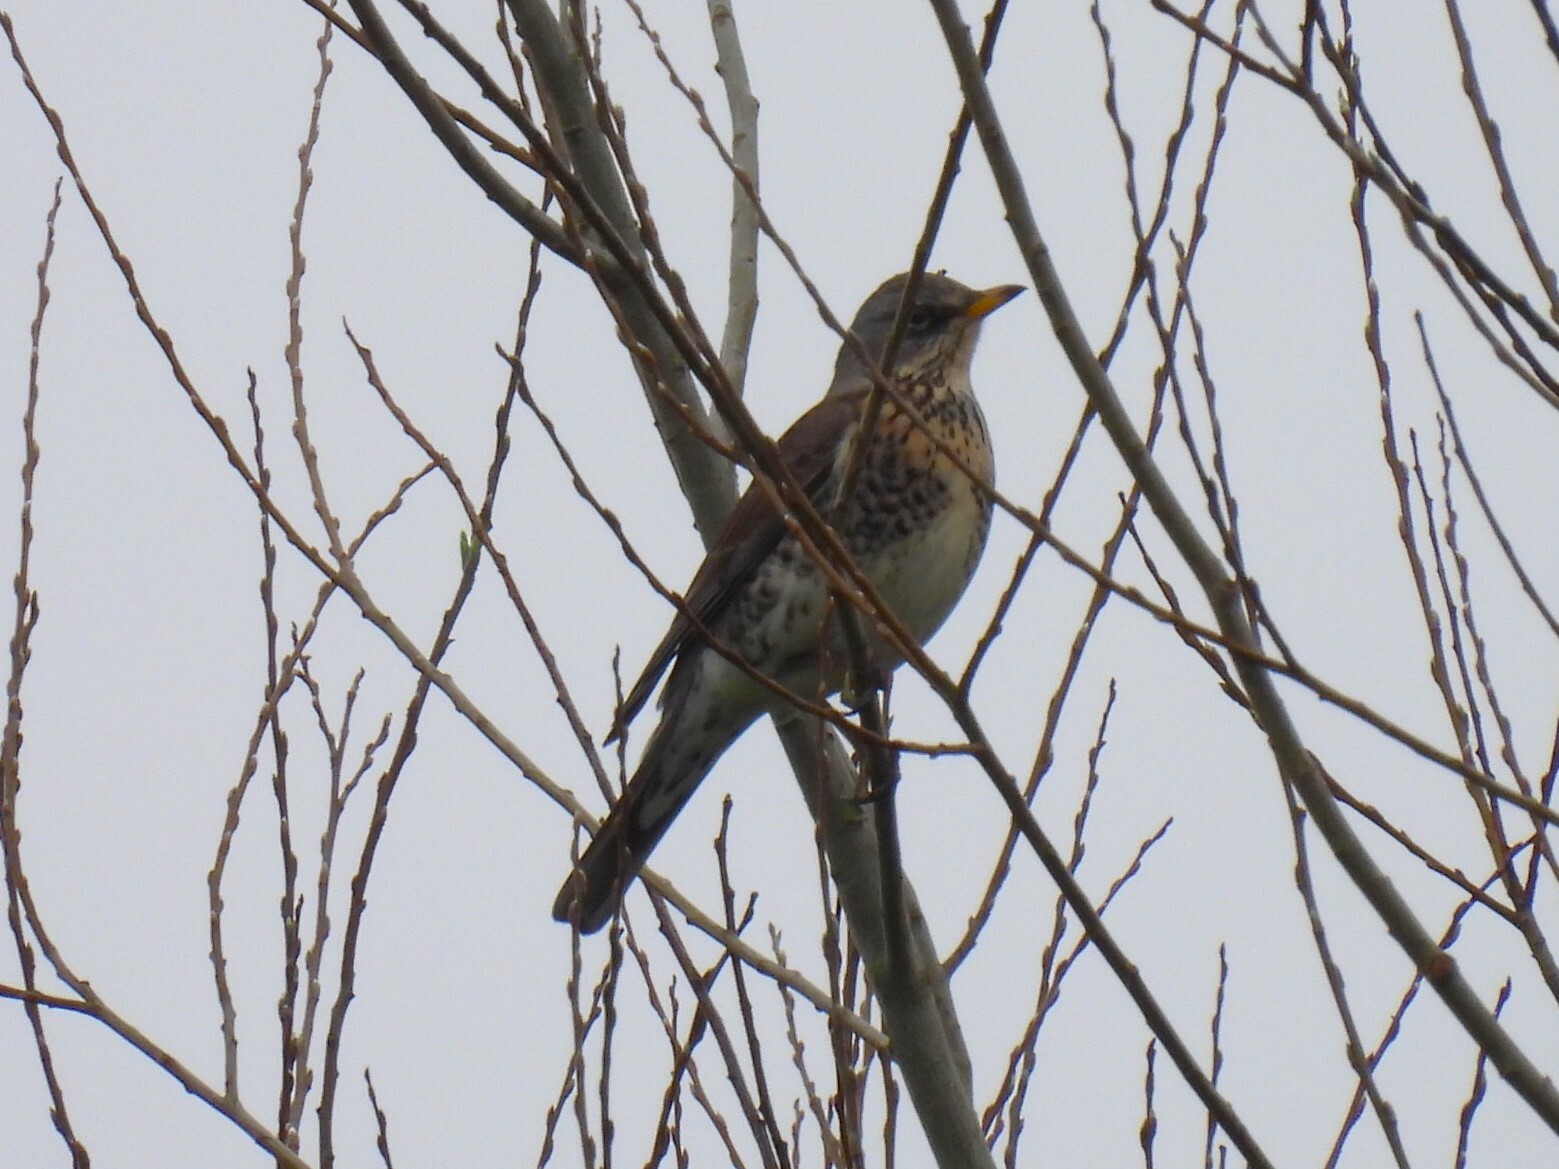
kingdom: Animalia
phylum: Chordata
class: Aves
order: Passeriformes
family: Turdidae
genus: Turdus
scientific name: Turdus pilaris
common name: Fieldfare
